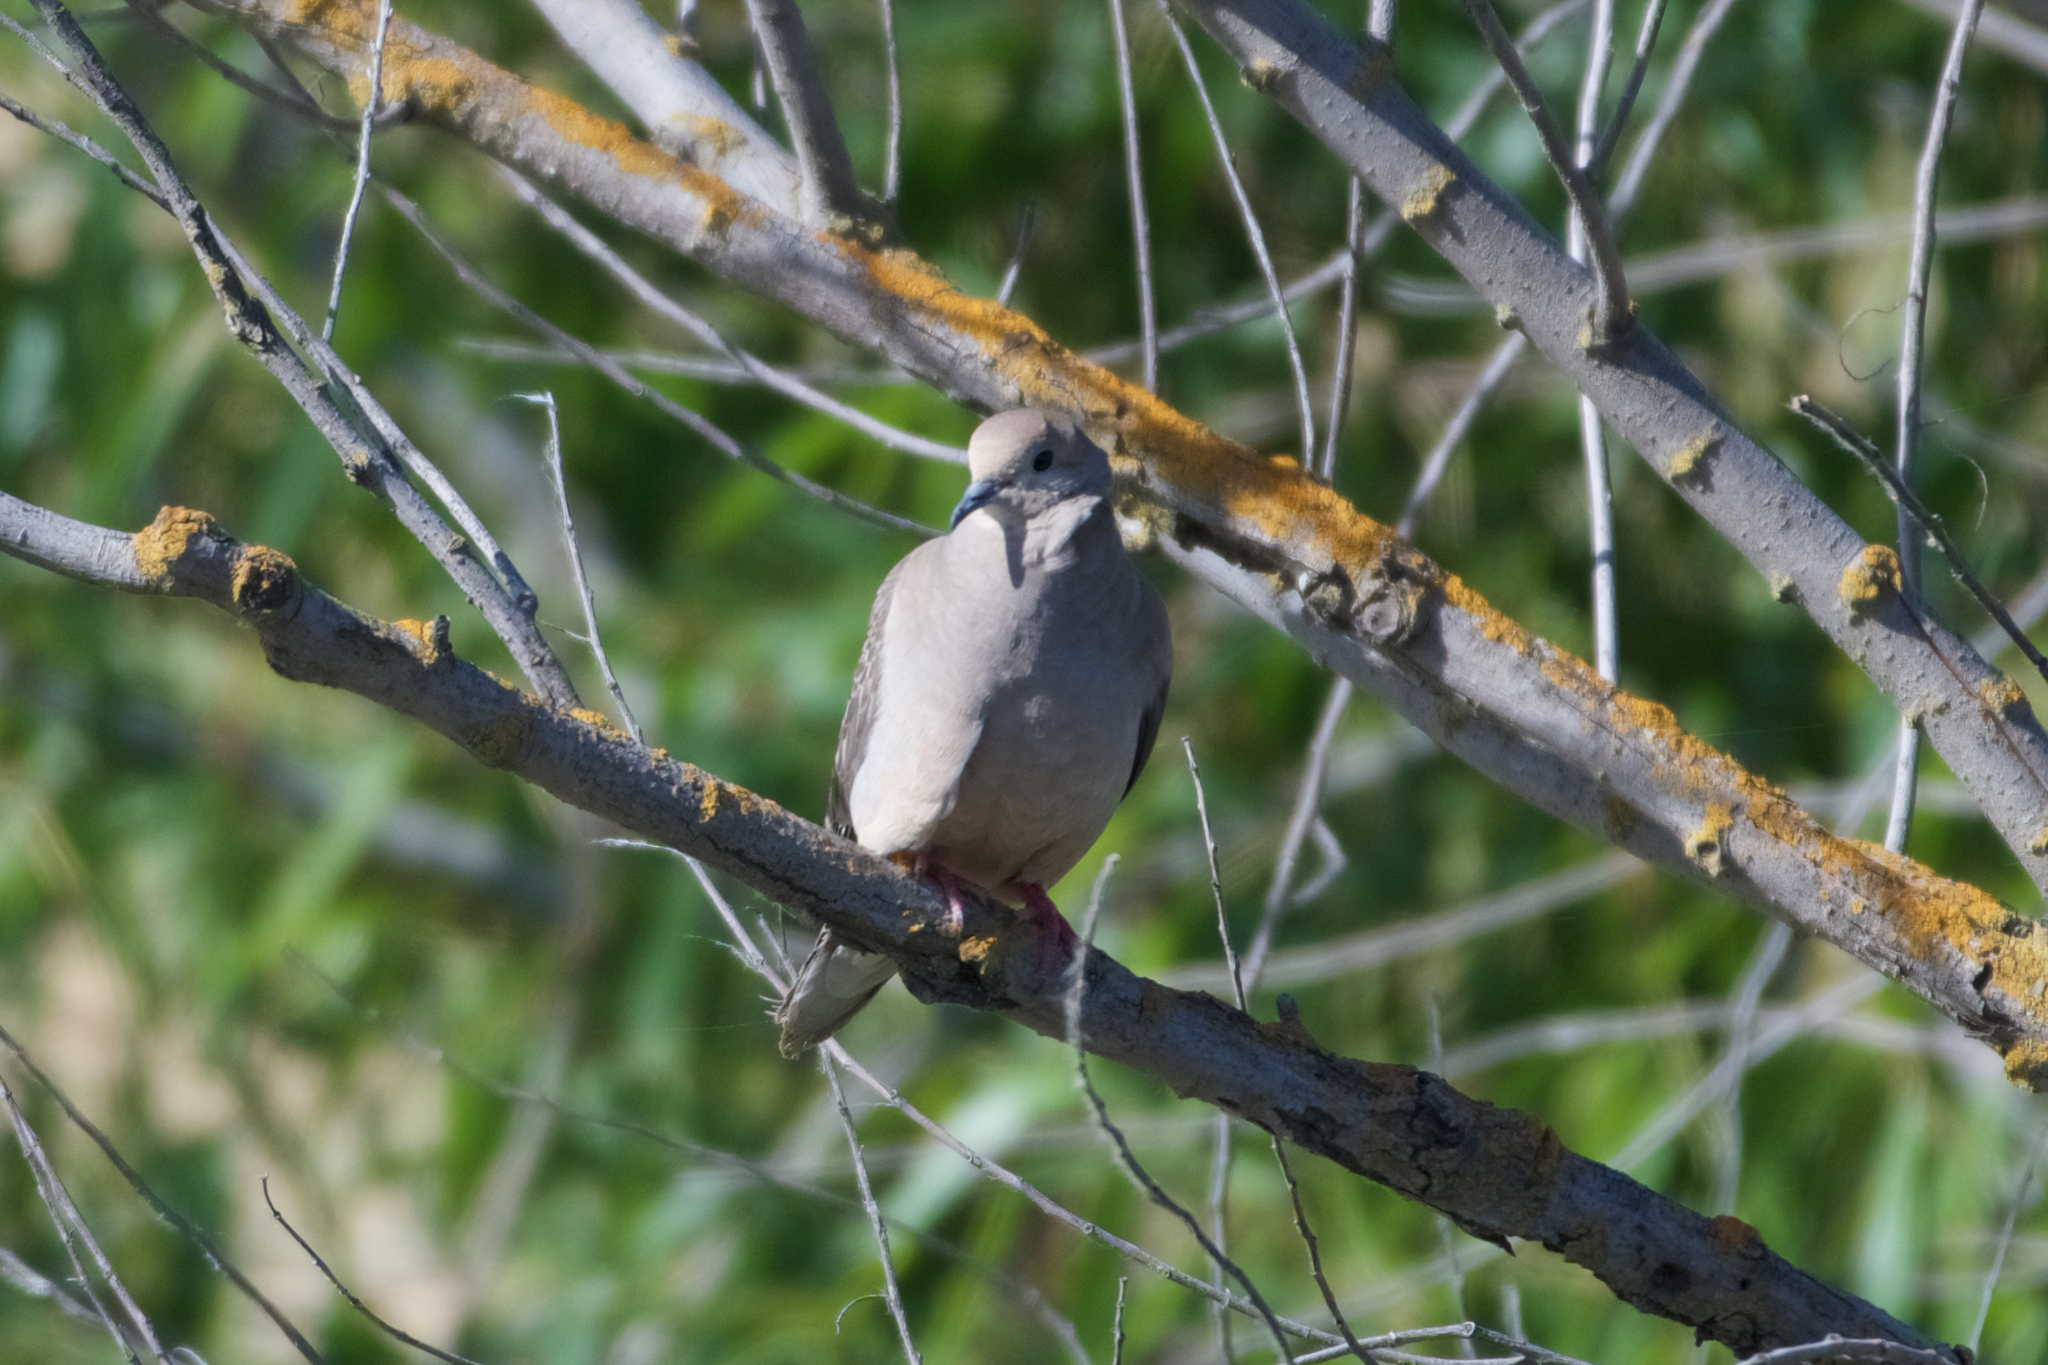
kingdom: Animalia
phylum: Chordata
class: Aves
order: Columbiformes
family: Columbidae
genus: Zenaida
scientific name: Zenaida macroura
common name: Mourning dove
